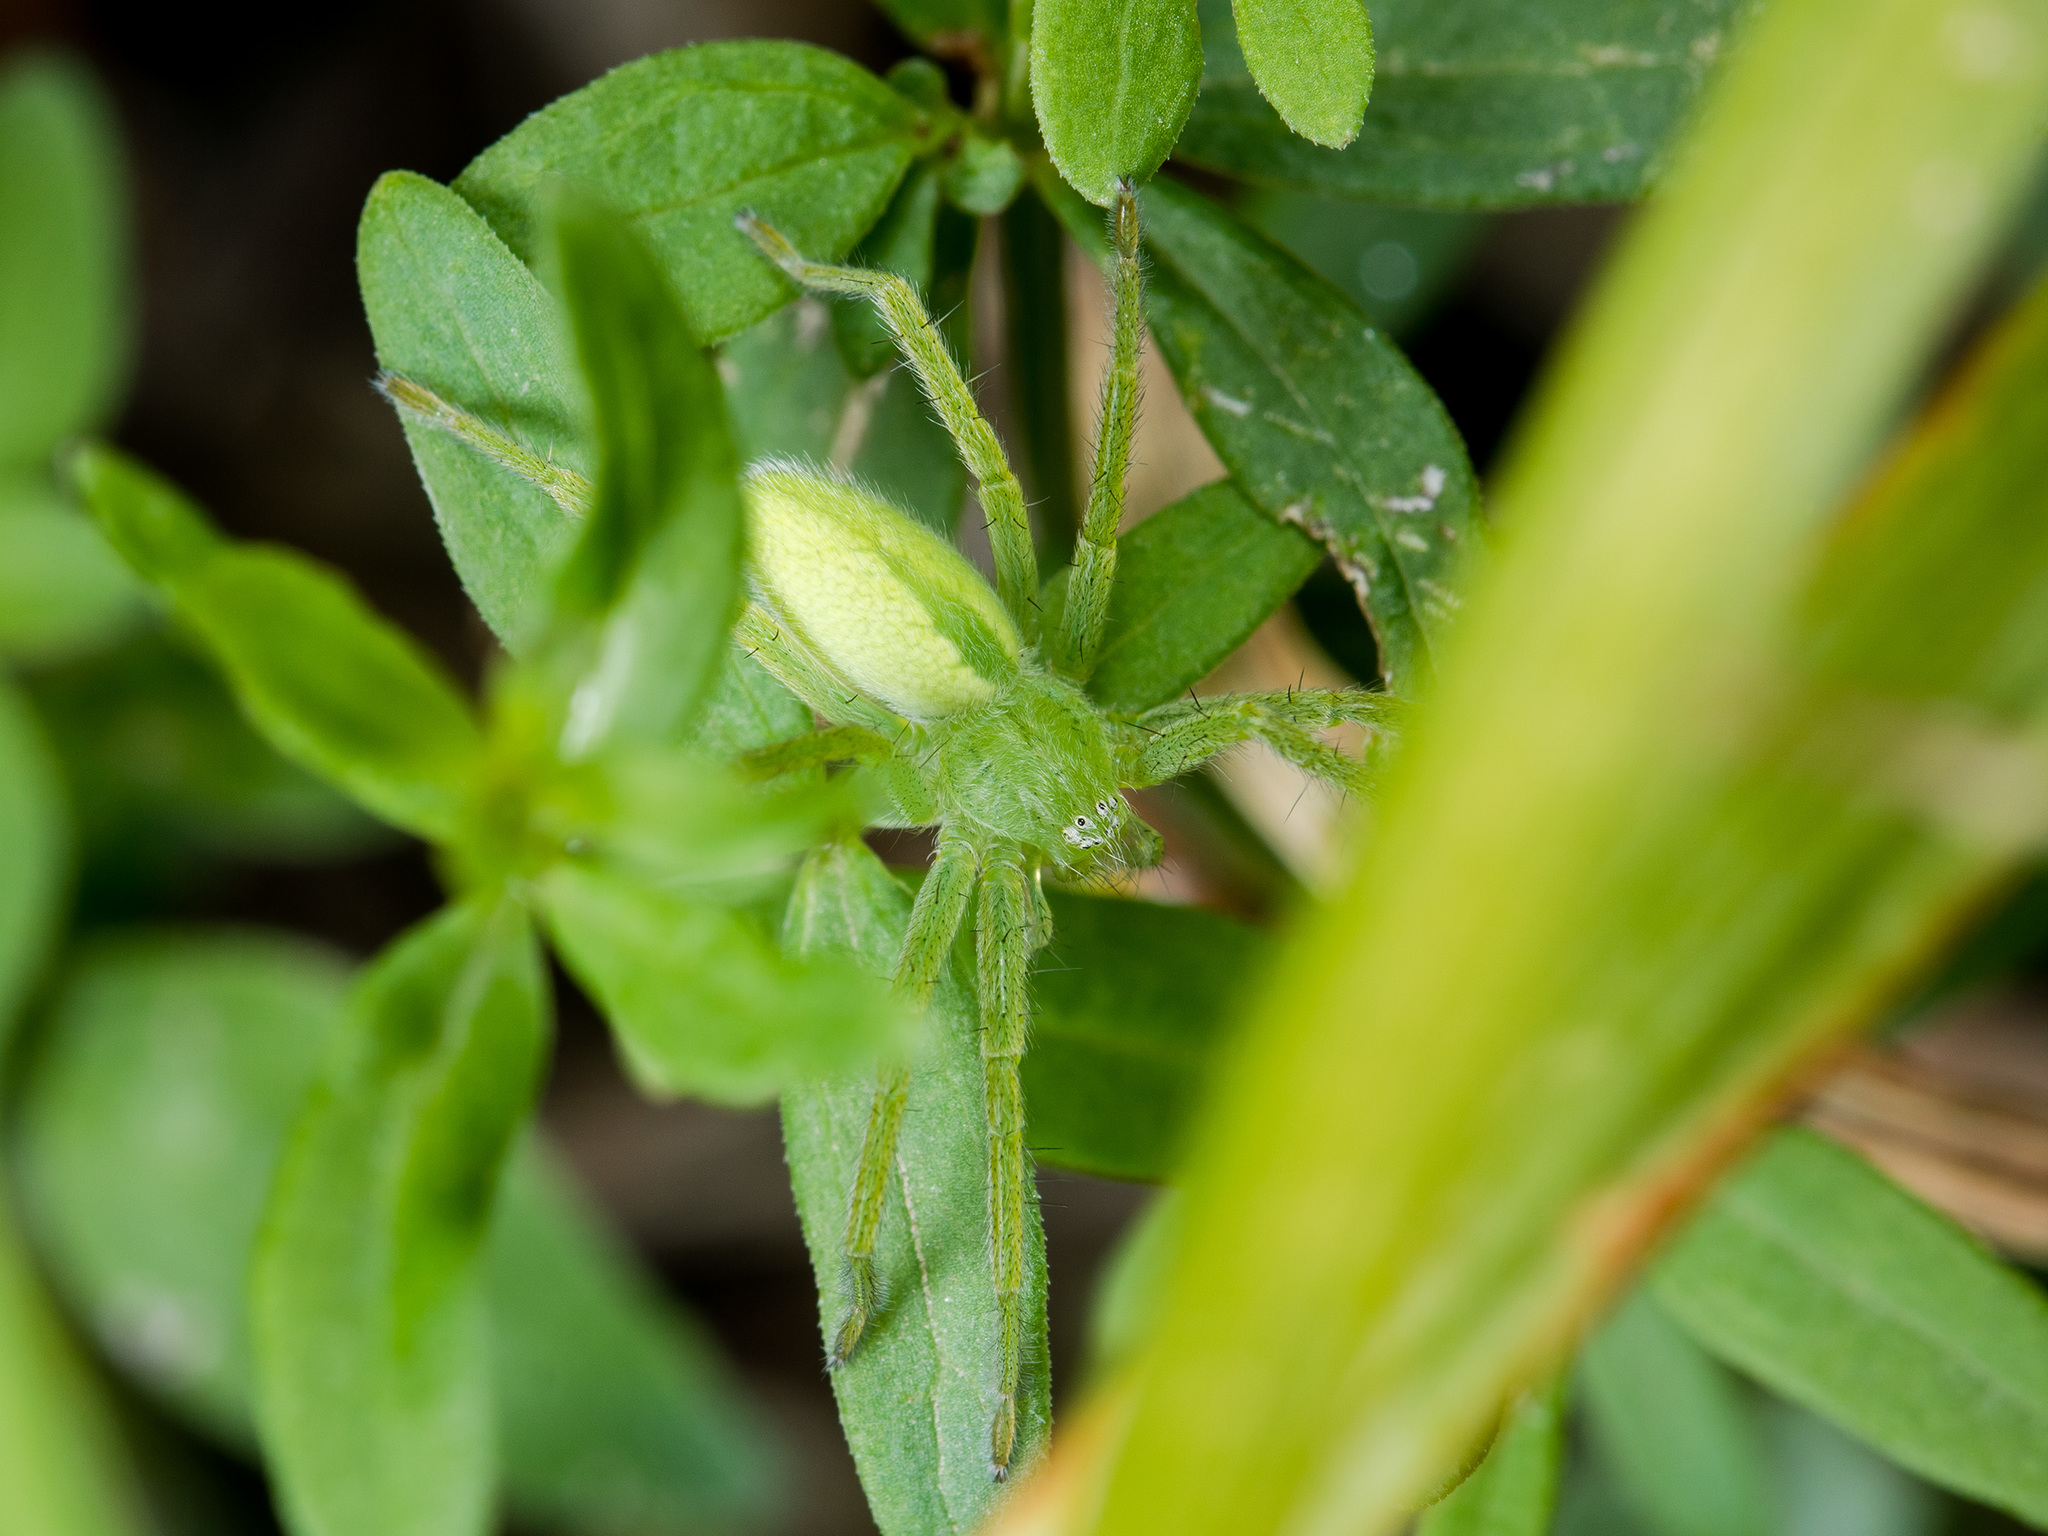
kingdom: Animalia
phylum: Arthropoda
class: Arachnida
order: Araneae
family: Sparassidae
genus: Micrommata
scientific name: Micrommata virescens
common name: Green spider
